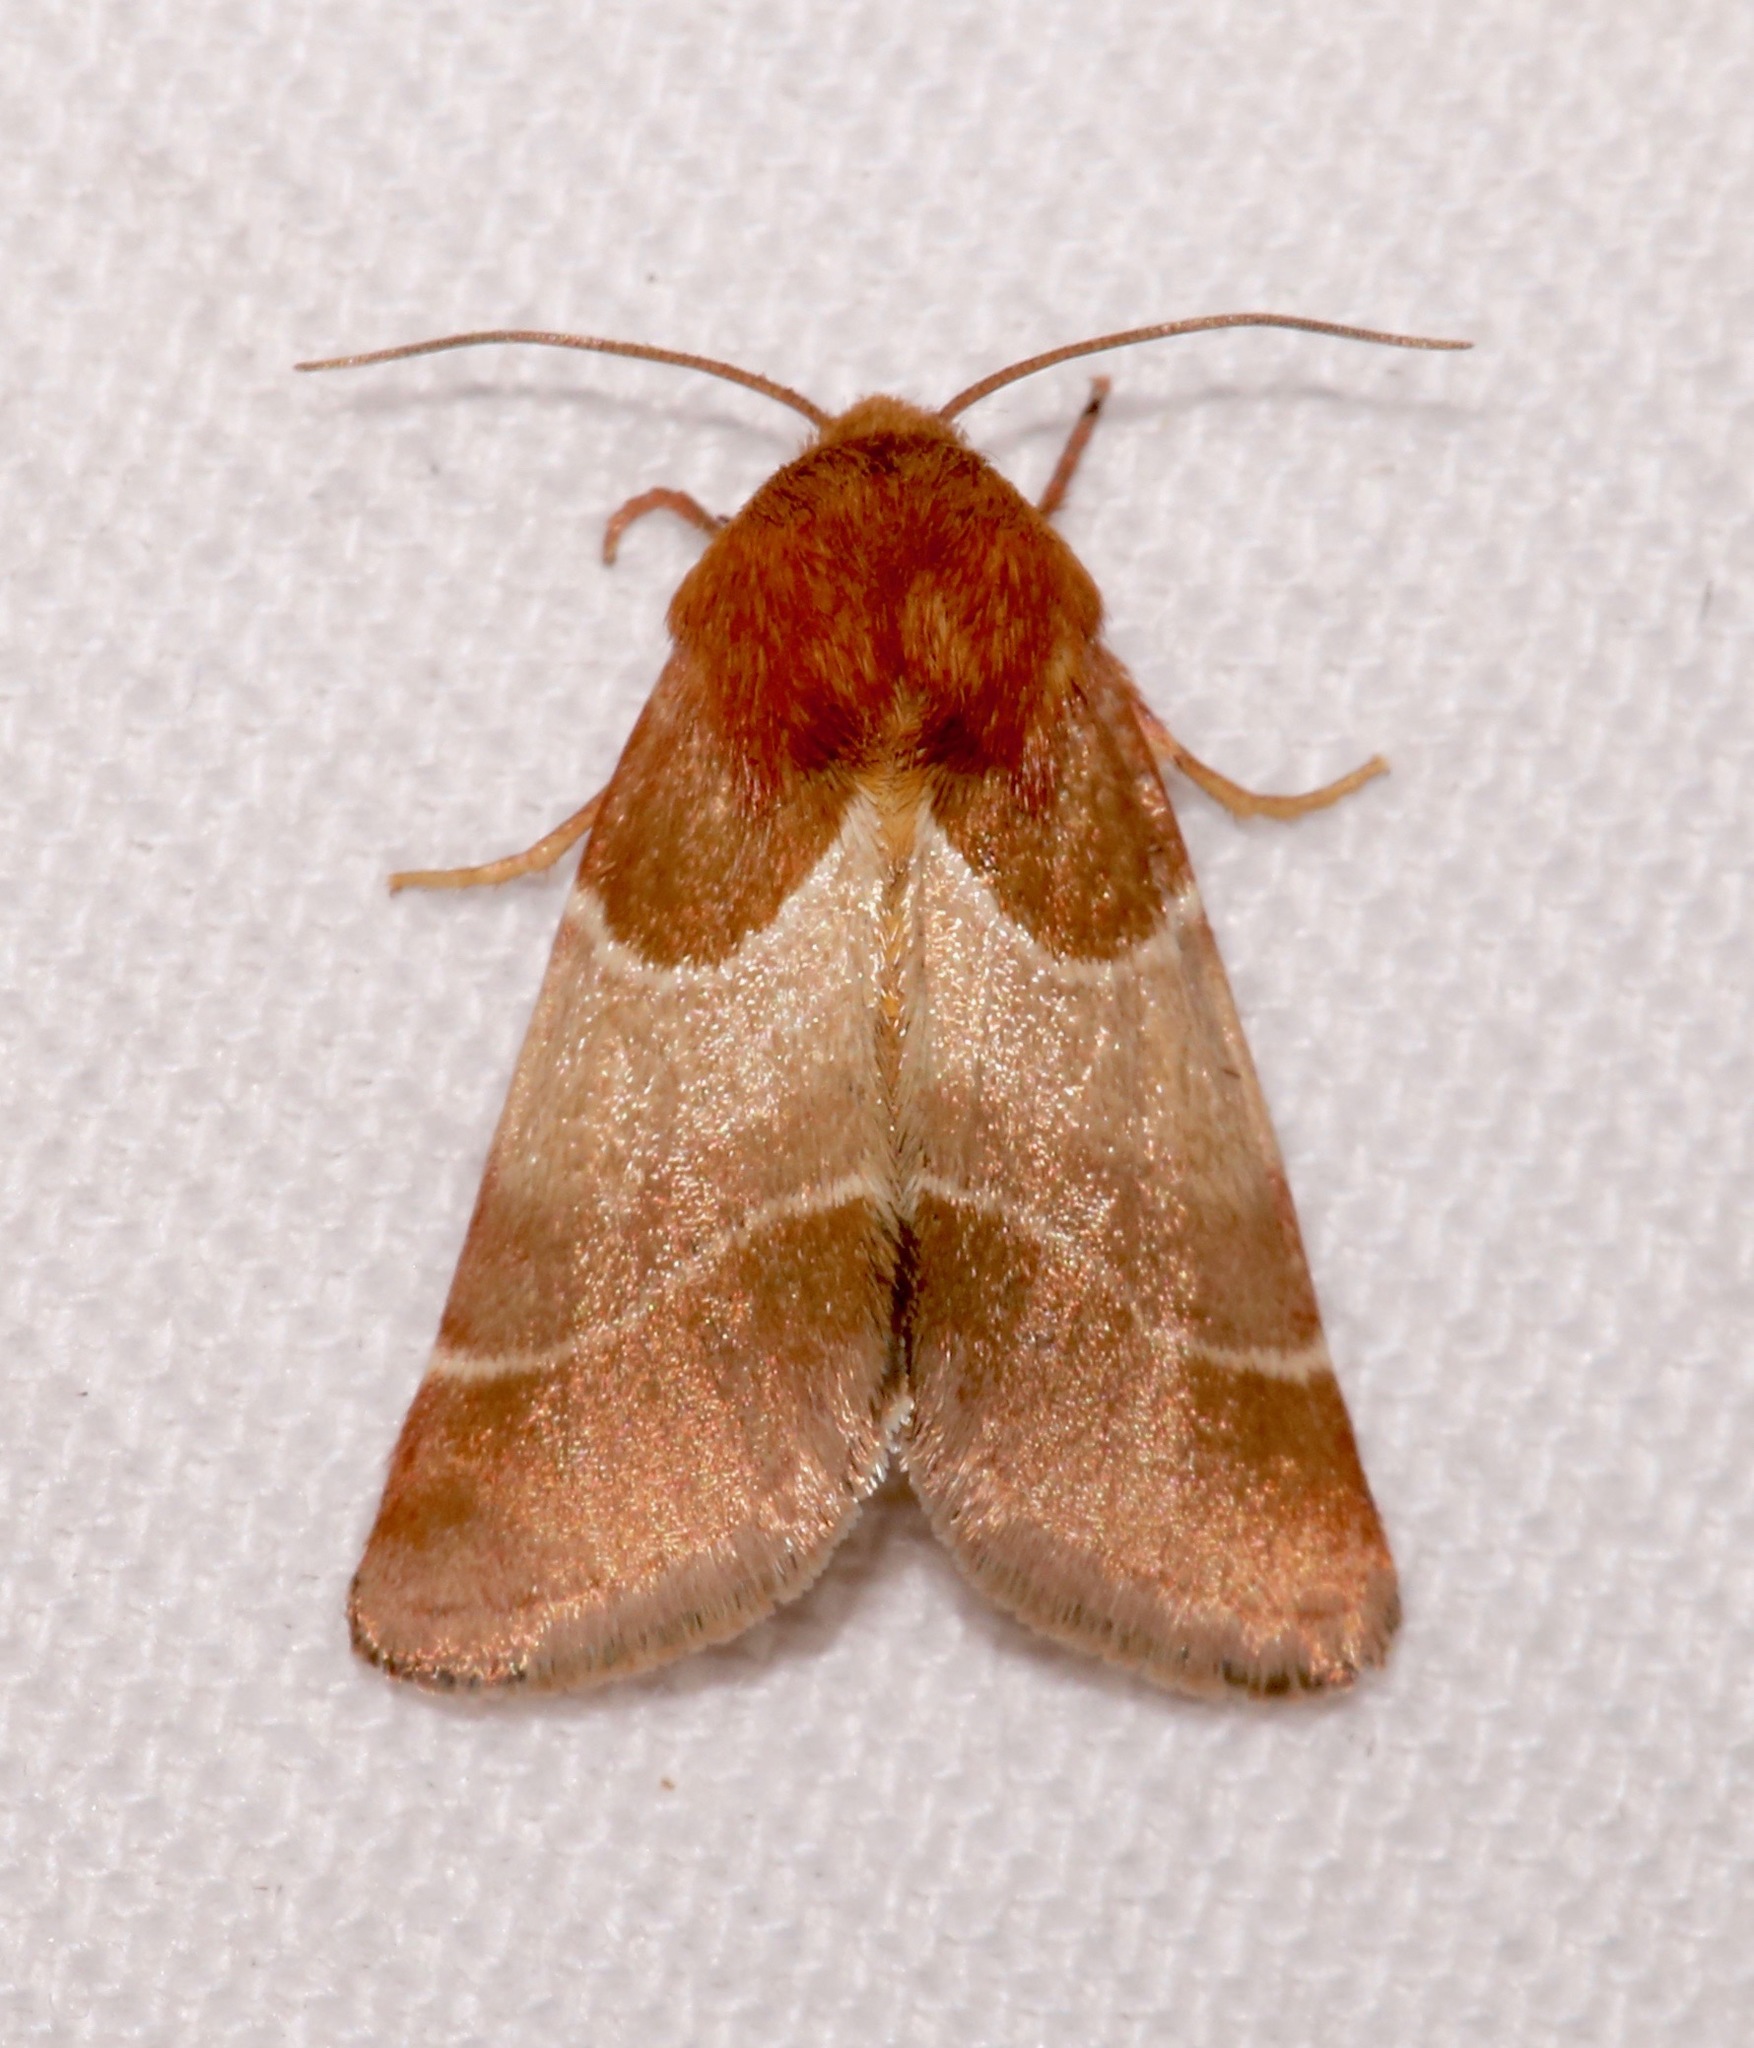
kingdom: Animalia
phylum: Arthropoda
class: Insecta
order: Lepidoptera
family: Noctuidae
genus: Schinia
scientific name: Schinia arcigera
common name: Arcigera flower moth
